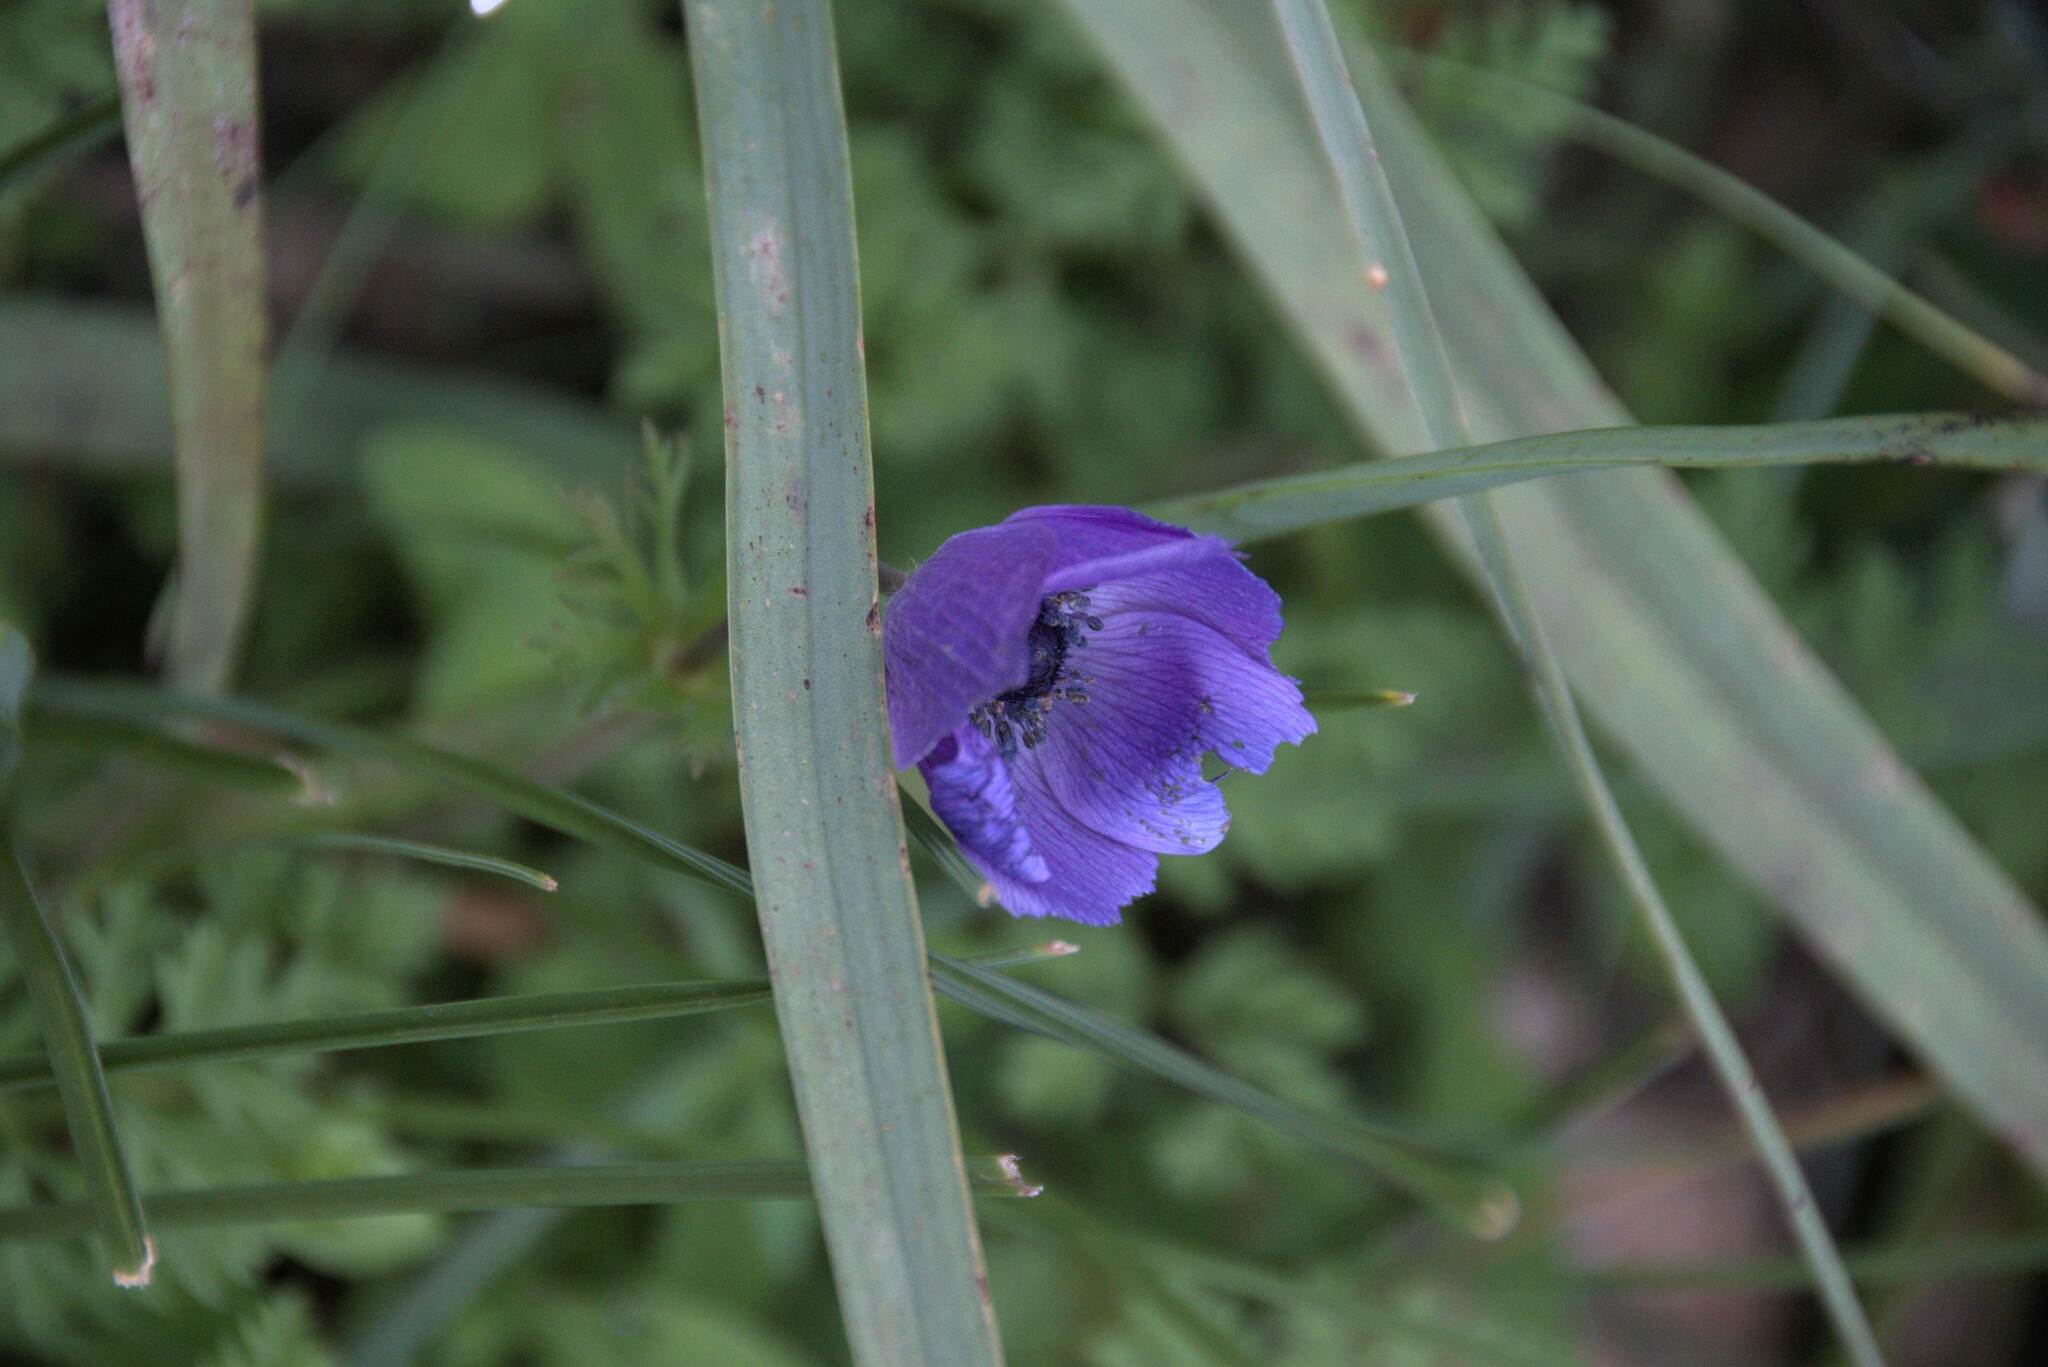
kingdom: Plantae
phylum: Tracheophyta
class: Magnoliopsida
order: Ranunculales
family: Ranunculaceae
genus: Anemone
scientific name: Anemone coronaria
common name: Poppy anemone
